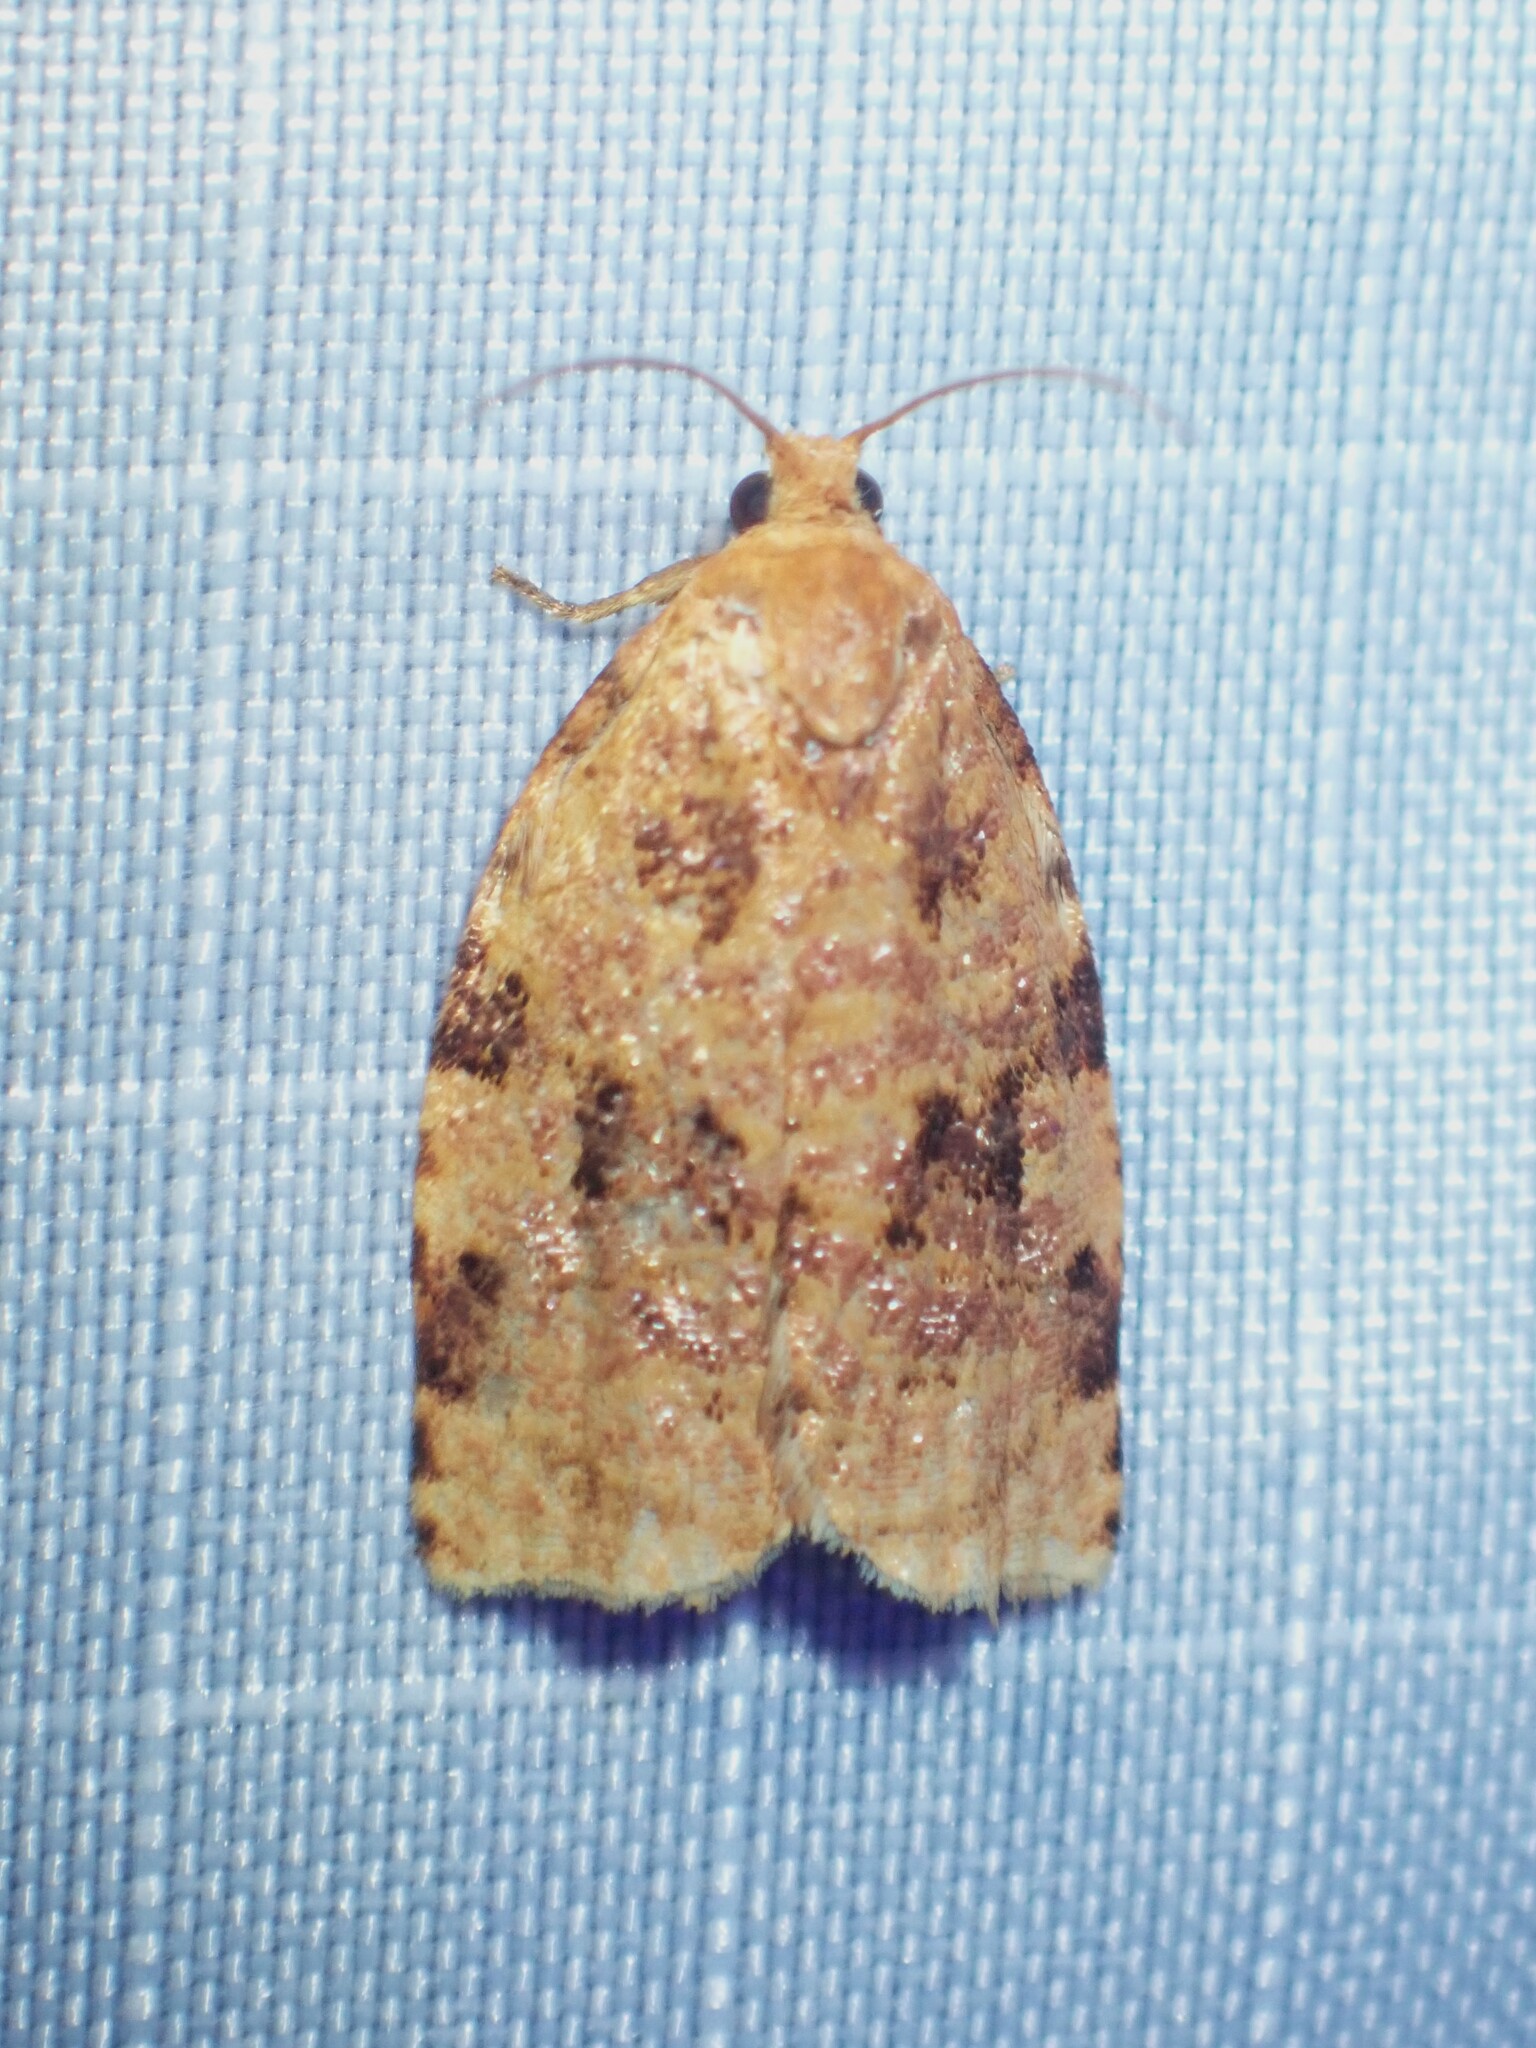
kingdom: Animalia
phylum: Arthropoda
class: Insecta
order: Lepidoptera
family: Tortricidae
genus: Archips
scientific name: Archips cerasivorana
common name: Uglynest caterpillar
